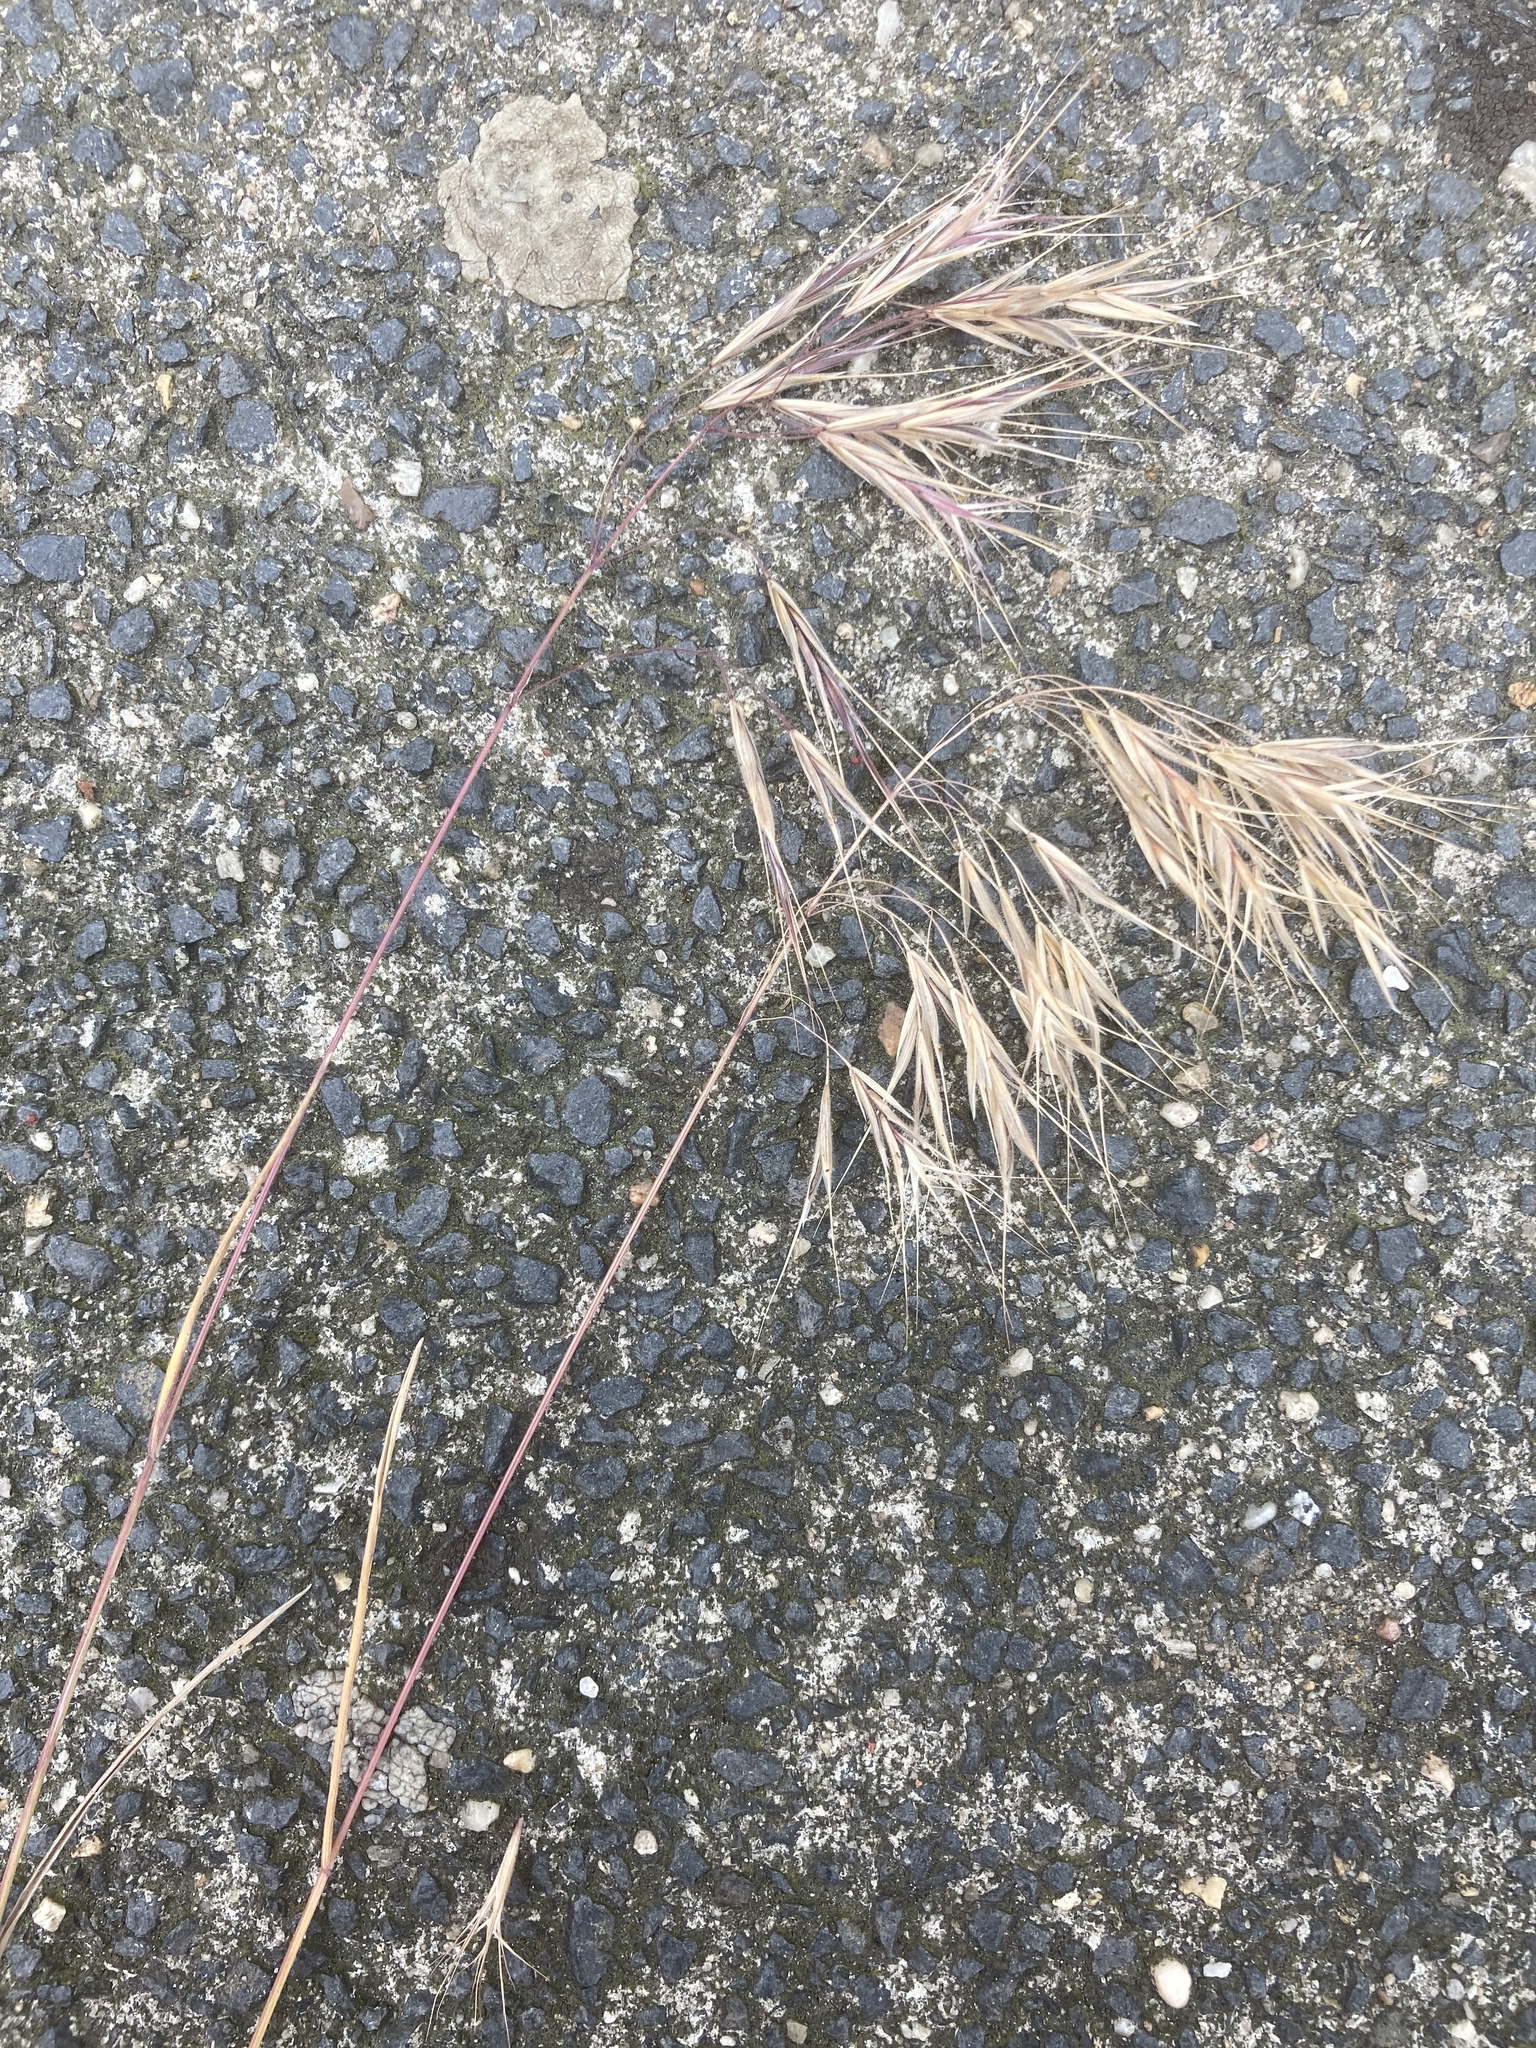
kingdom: Plantae
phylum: Tracheophyta
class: Liliopsida
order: Poales
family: Poaceae
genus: Bromus
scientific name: Bromus tectorum
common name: Cheatgrass
